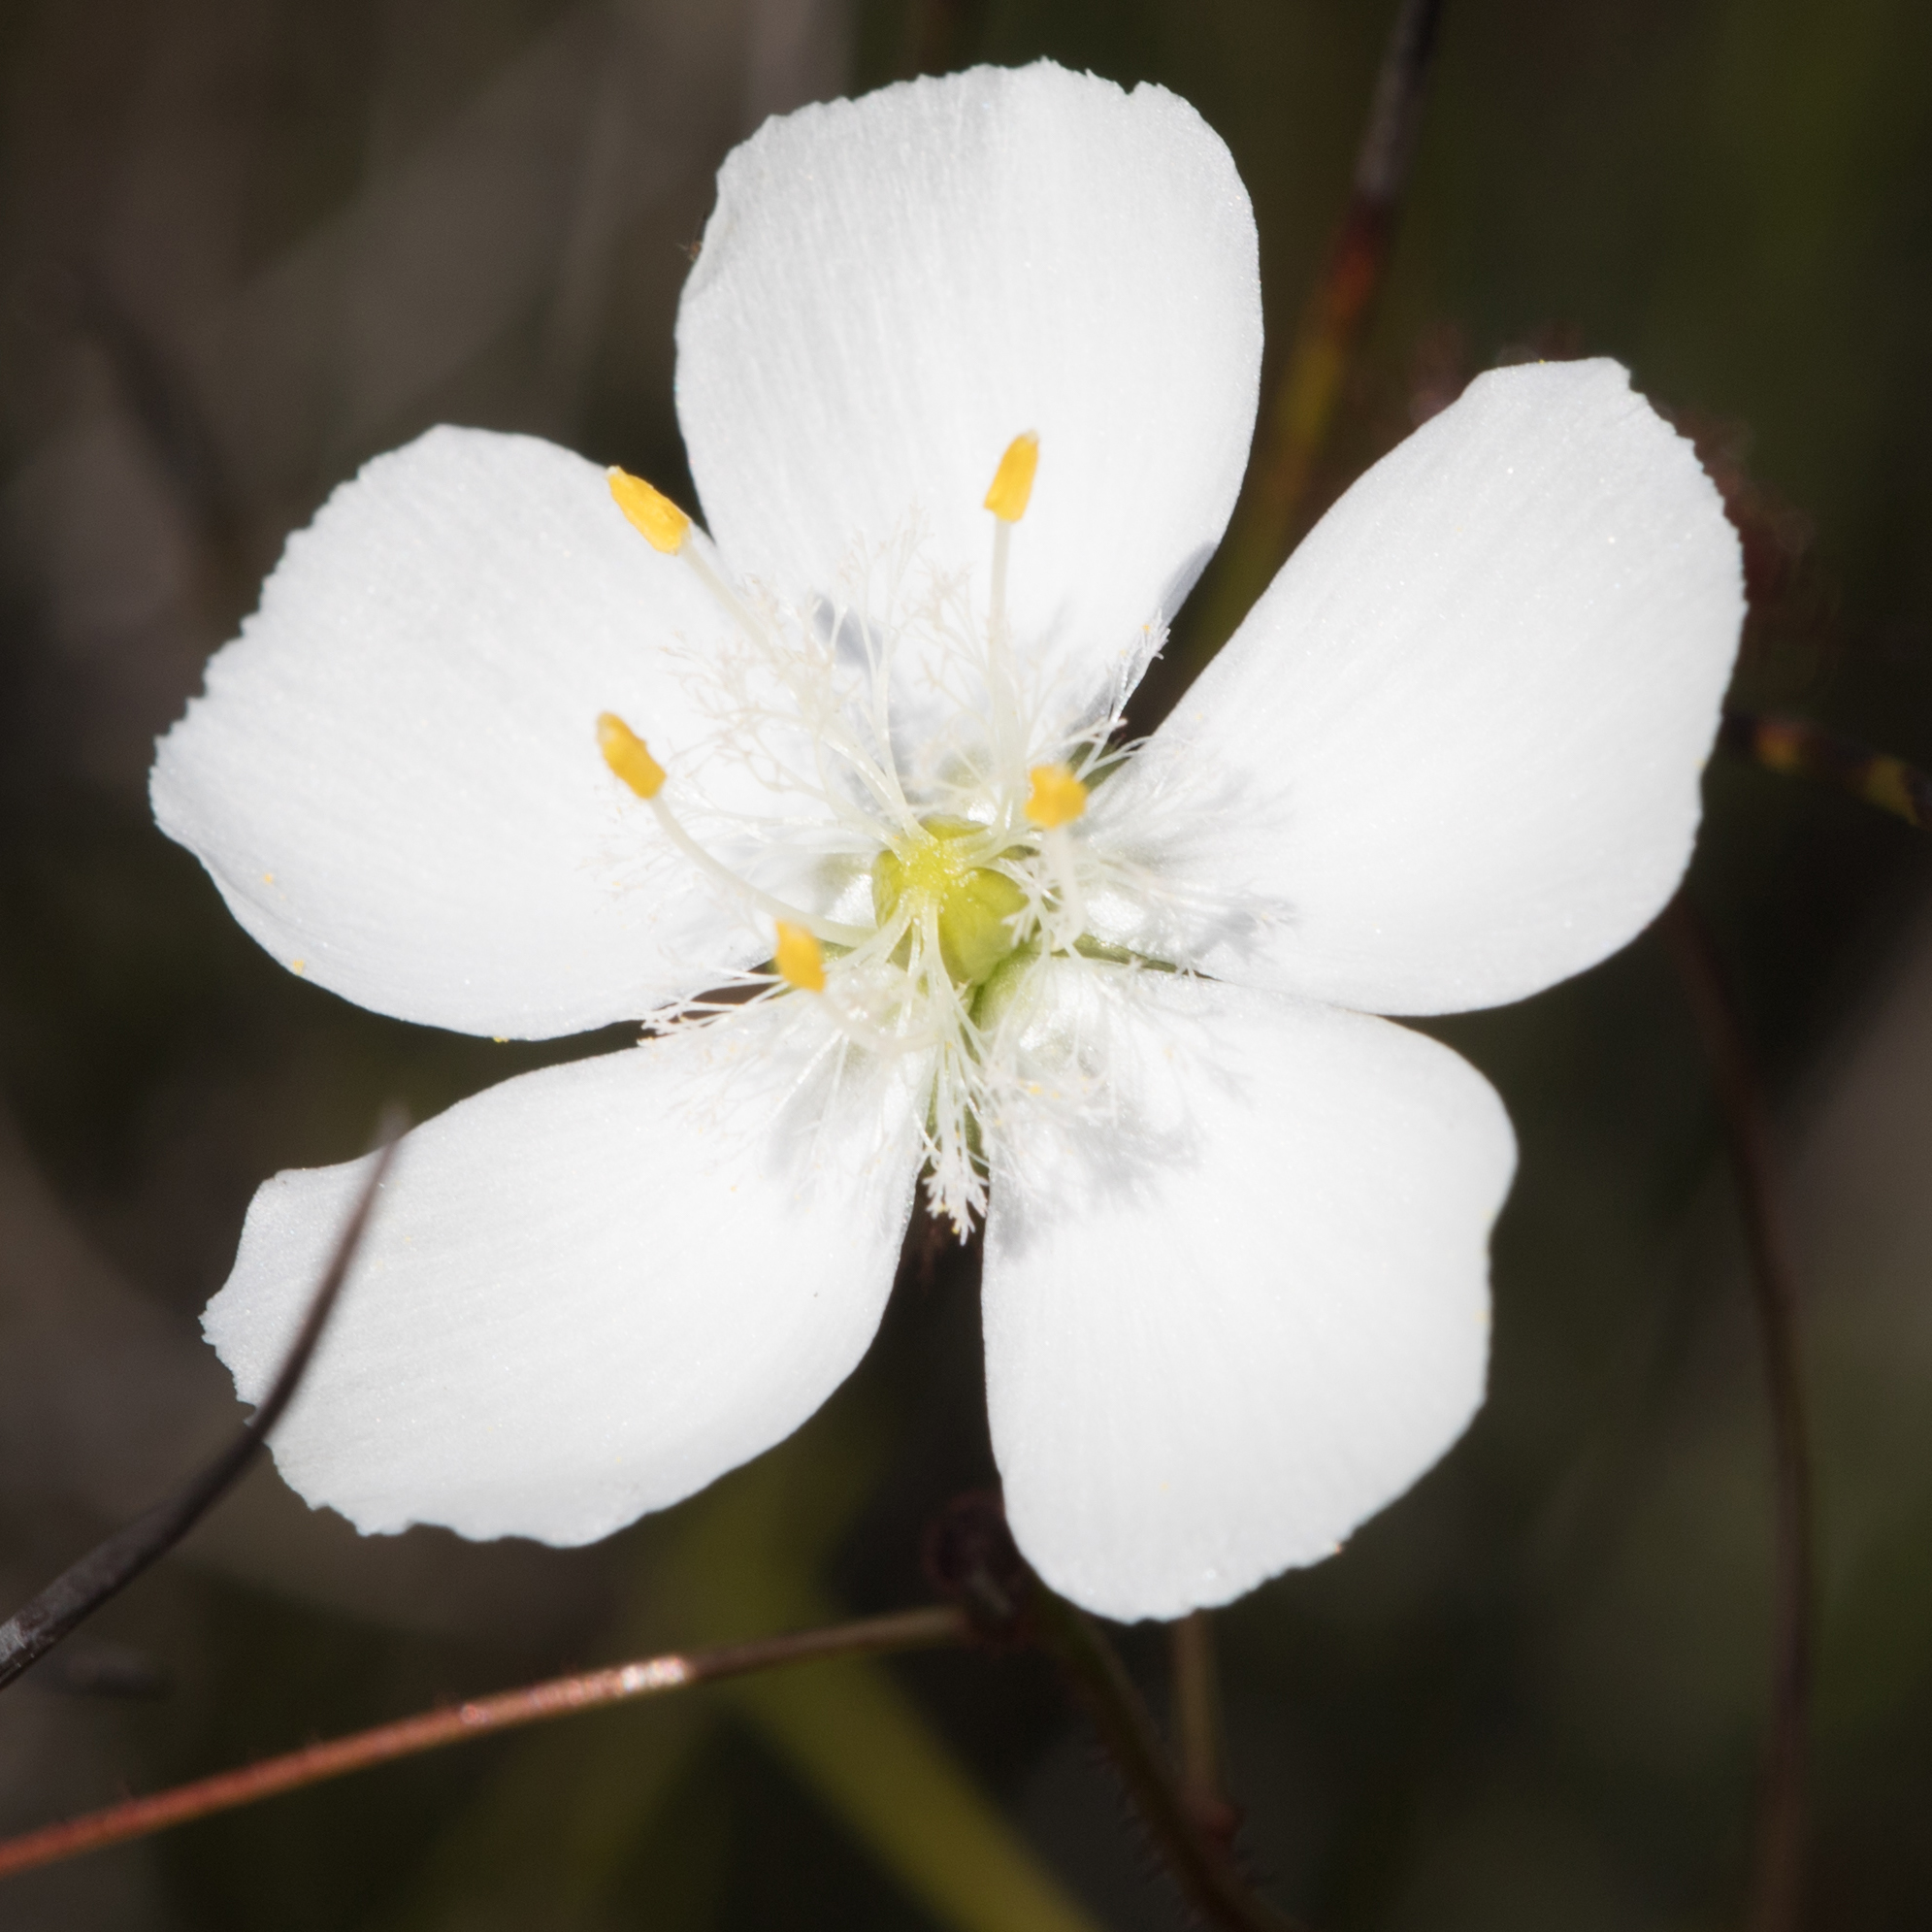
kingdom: Plantae
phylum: Tracheophyta
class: Magnoliopsida
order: Caryophyllales
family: Droseraceae
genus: Drosera
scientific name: Drosera planchonii
